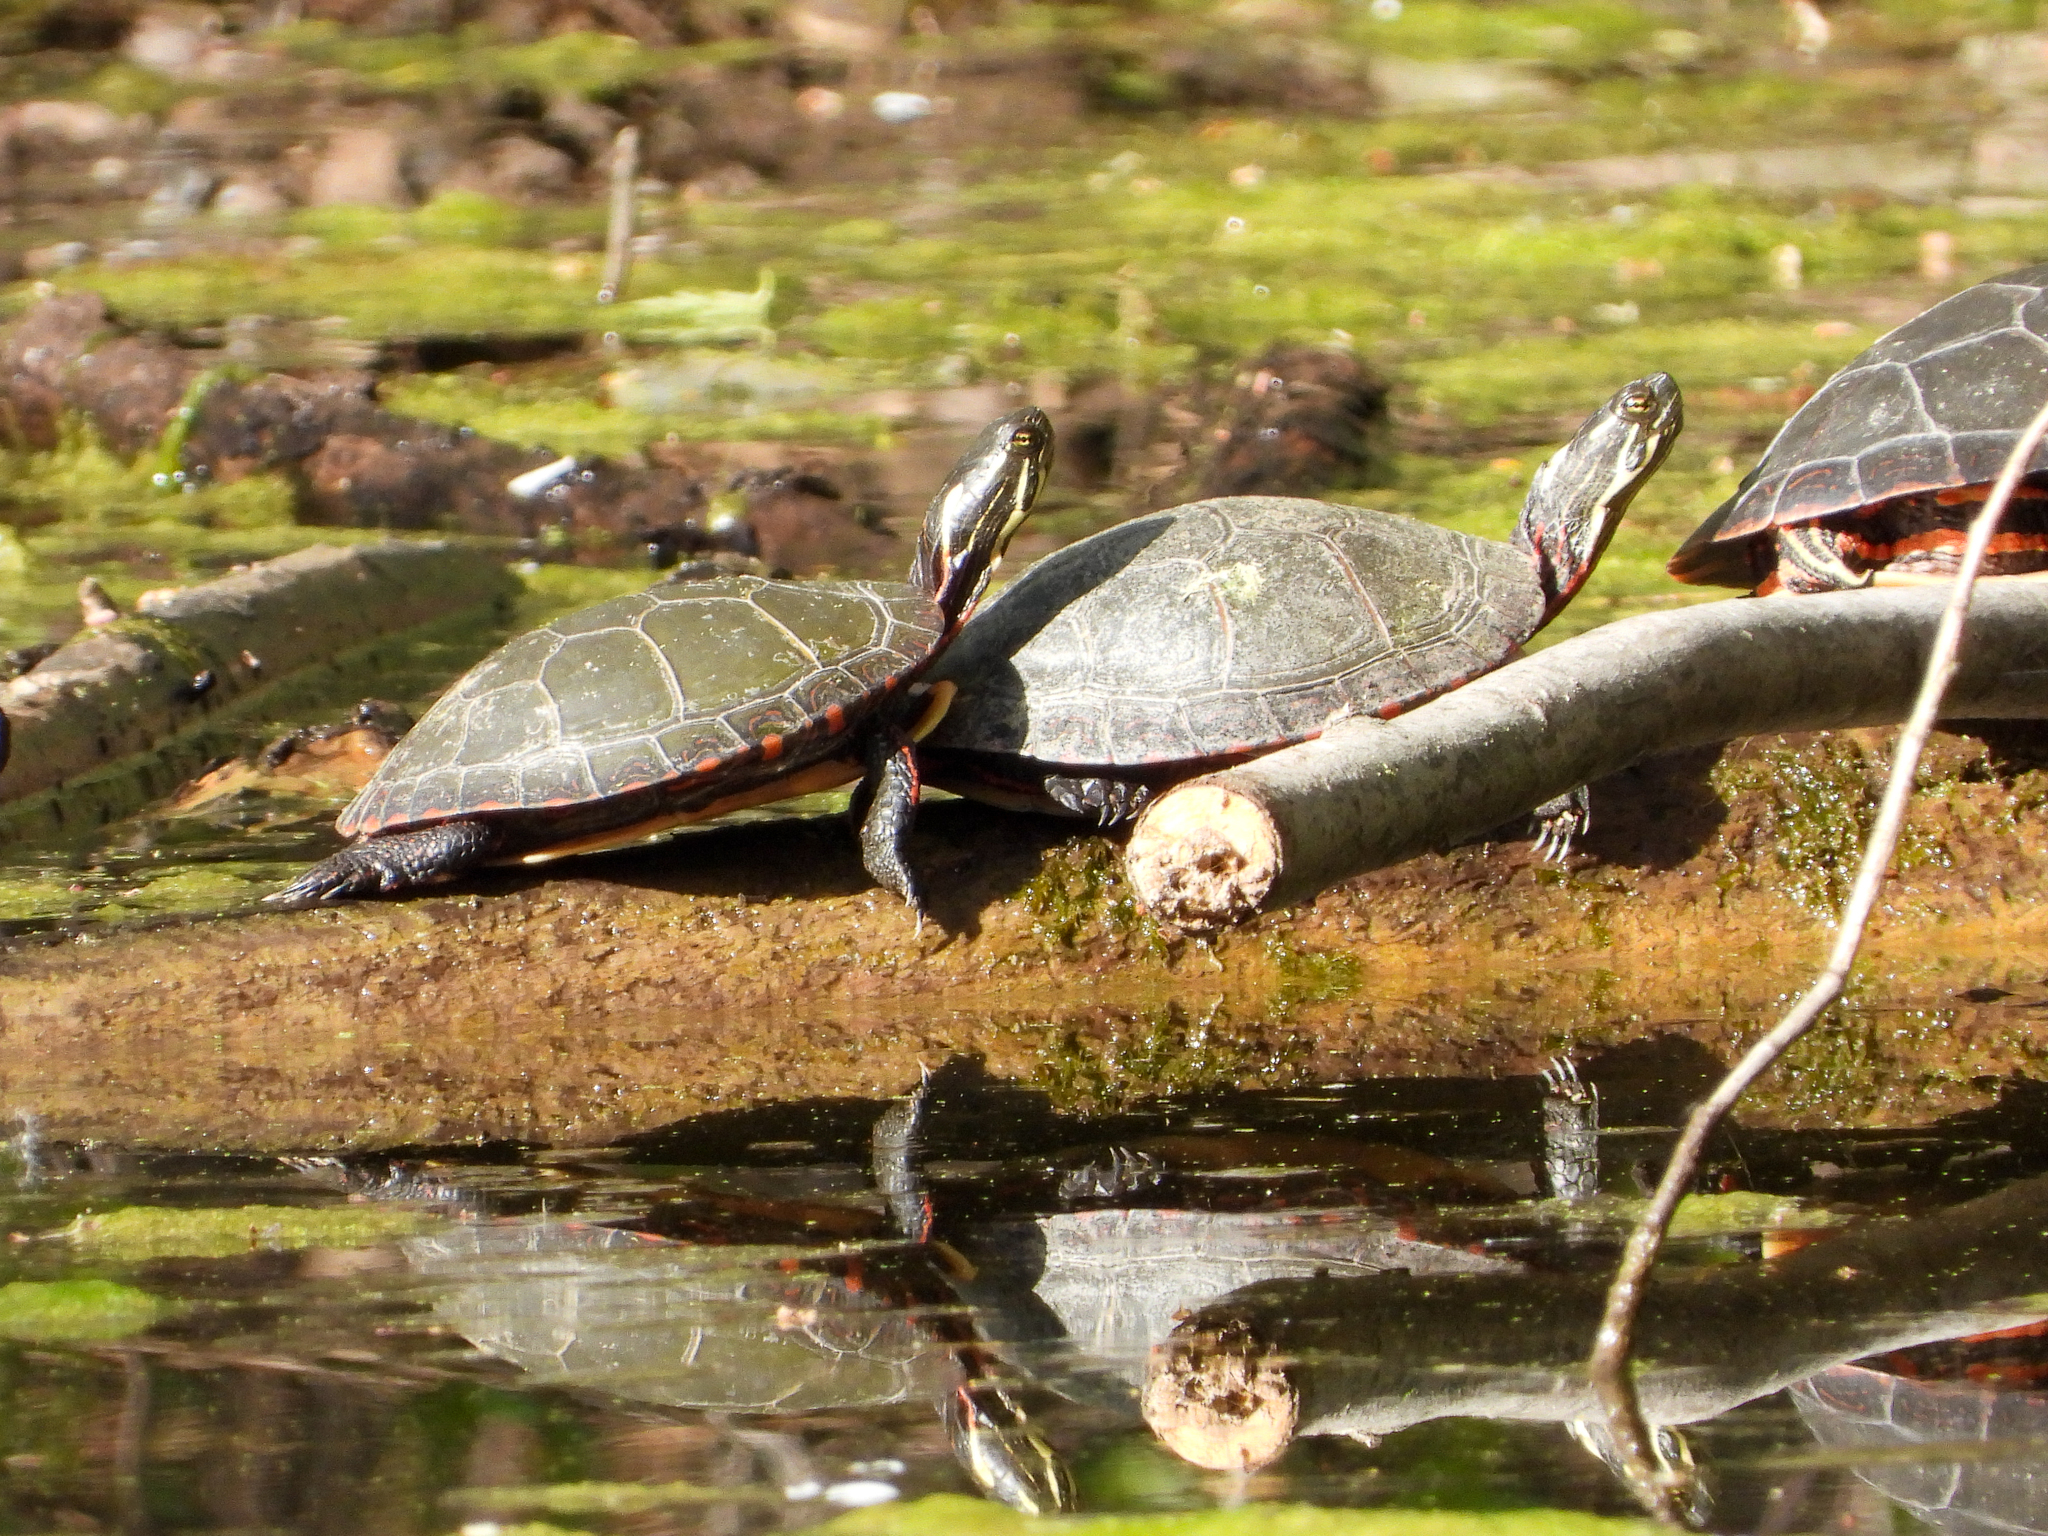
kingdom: Animalia
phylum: Chordata
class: Testudines
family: Emydidae
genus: Chrysemys
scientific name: Chrysemys picta
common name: Painted turtle
